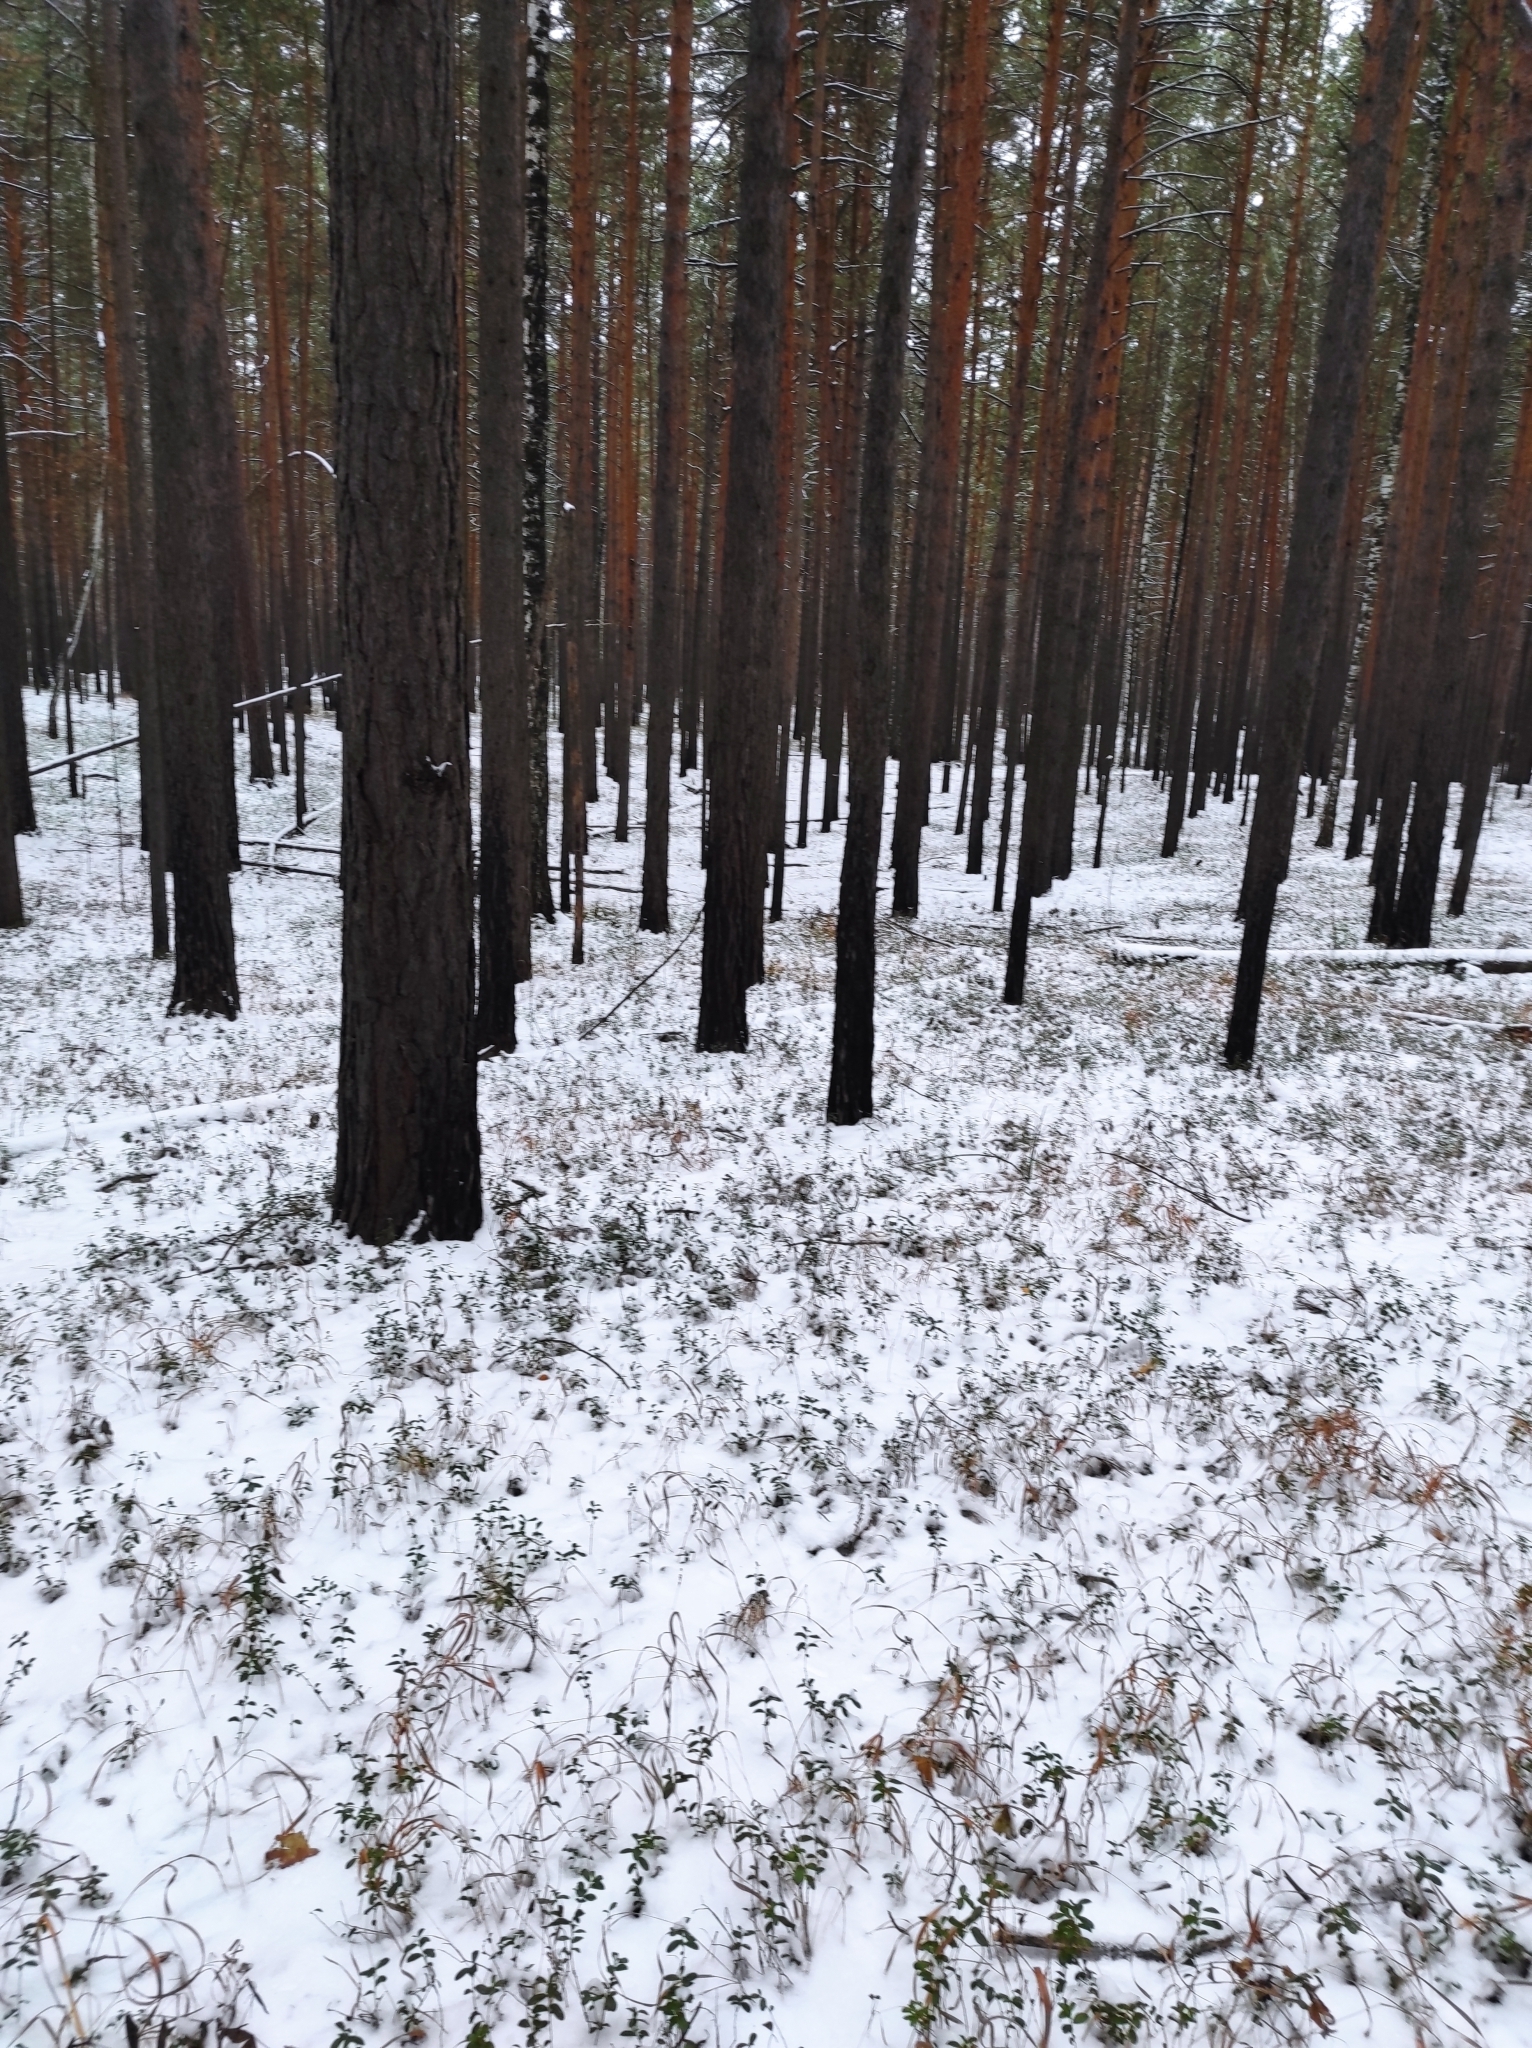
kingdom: Plantae
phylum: Tracheophyta
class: Magnoliopsida
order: Ericales
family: Ericaceae
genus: Vaccinium
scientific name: Vaccinium vitis-idaea
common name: Cowberry
